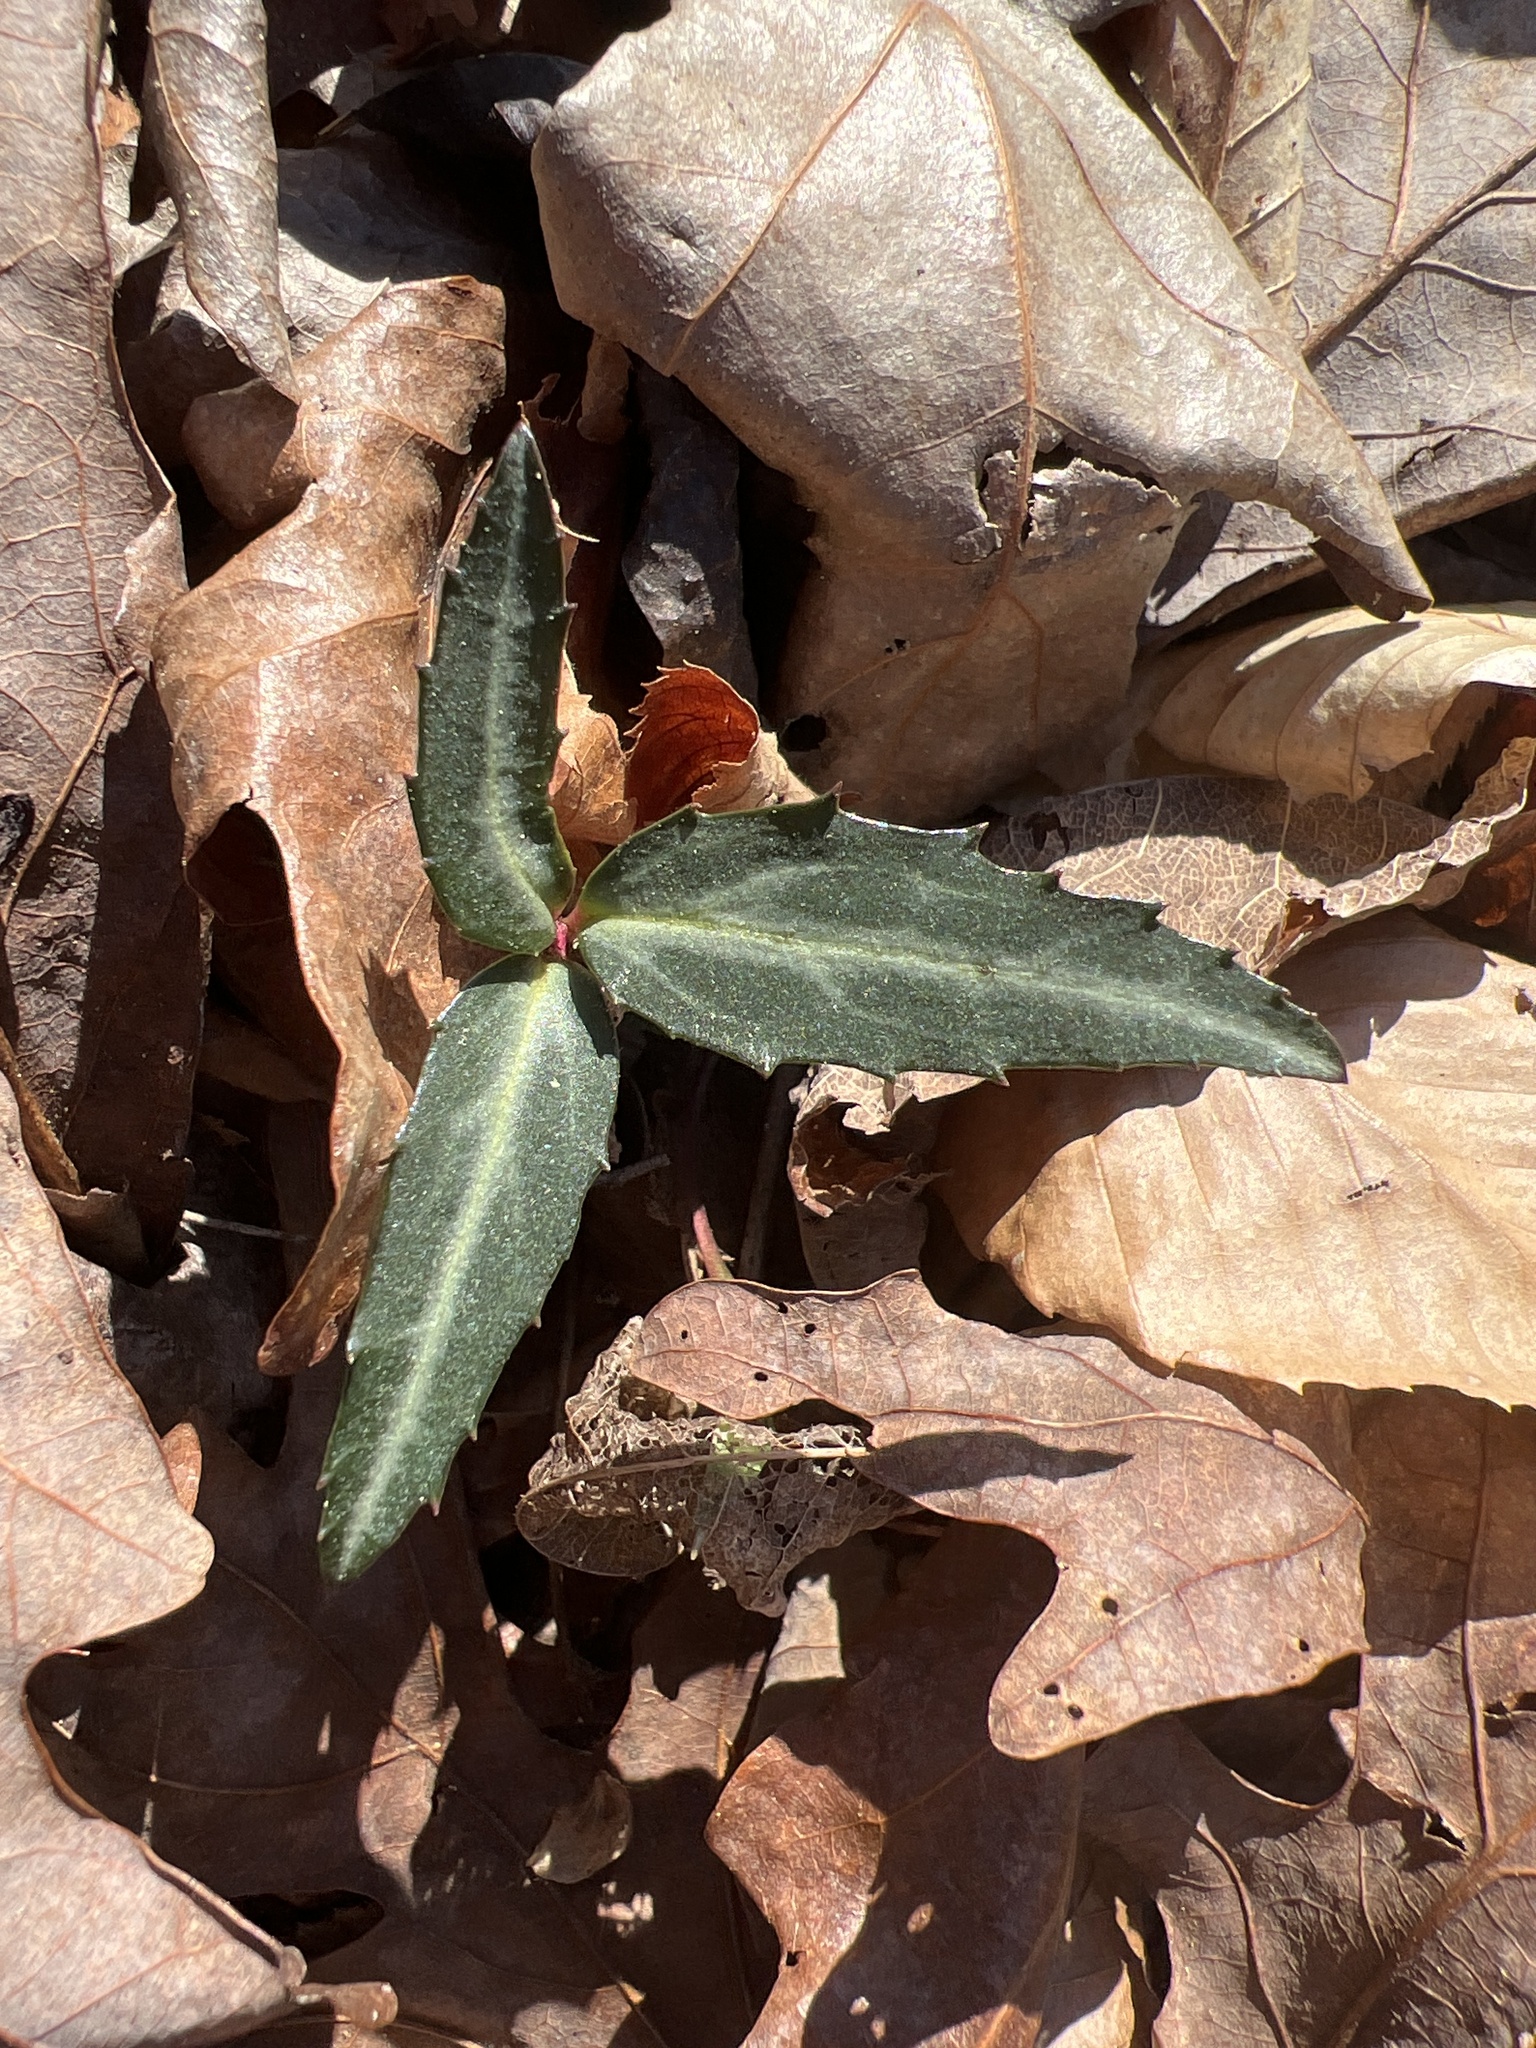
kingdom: Plantae
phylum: Tracheophyta
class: Magnoliopsida
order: Ericales
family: Ericaceae
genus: Chimaphila
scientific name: Chimaphila maculata
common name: Spotted pipsissewa
